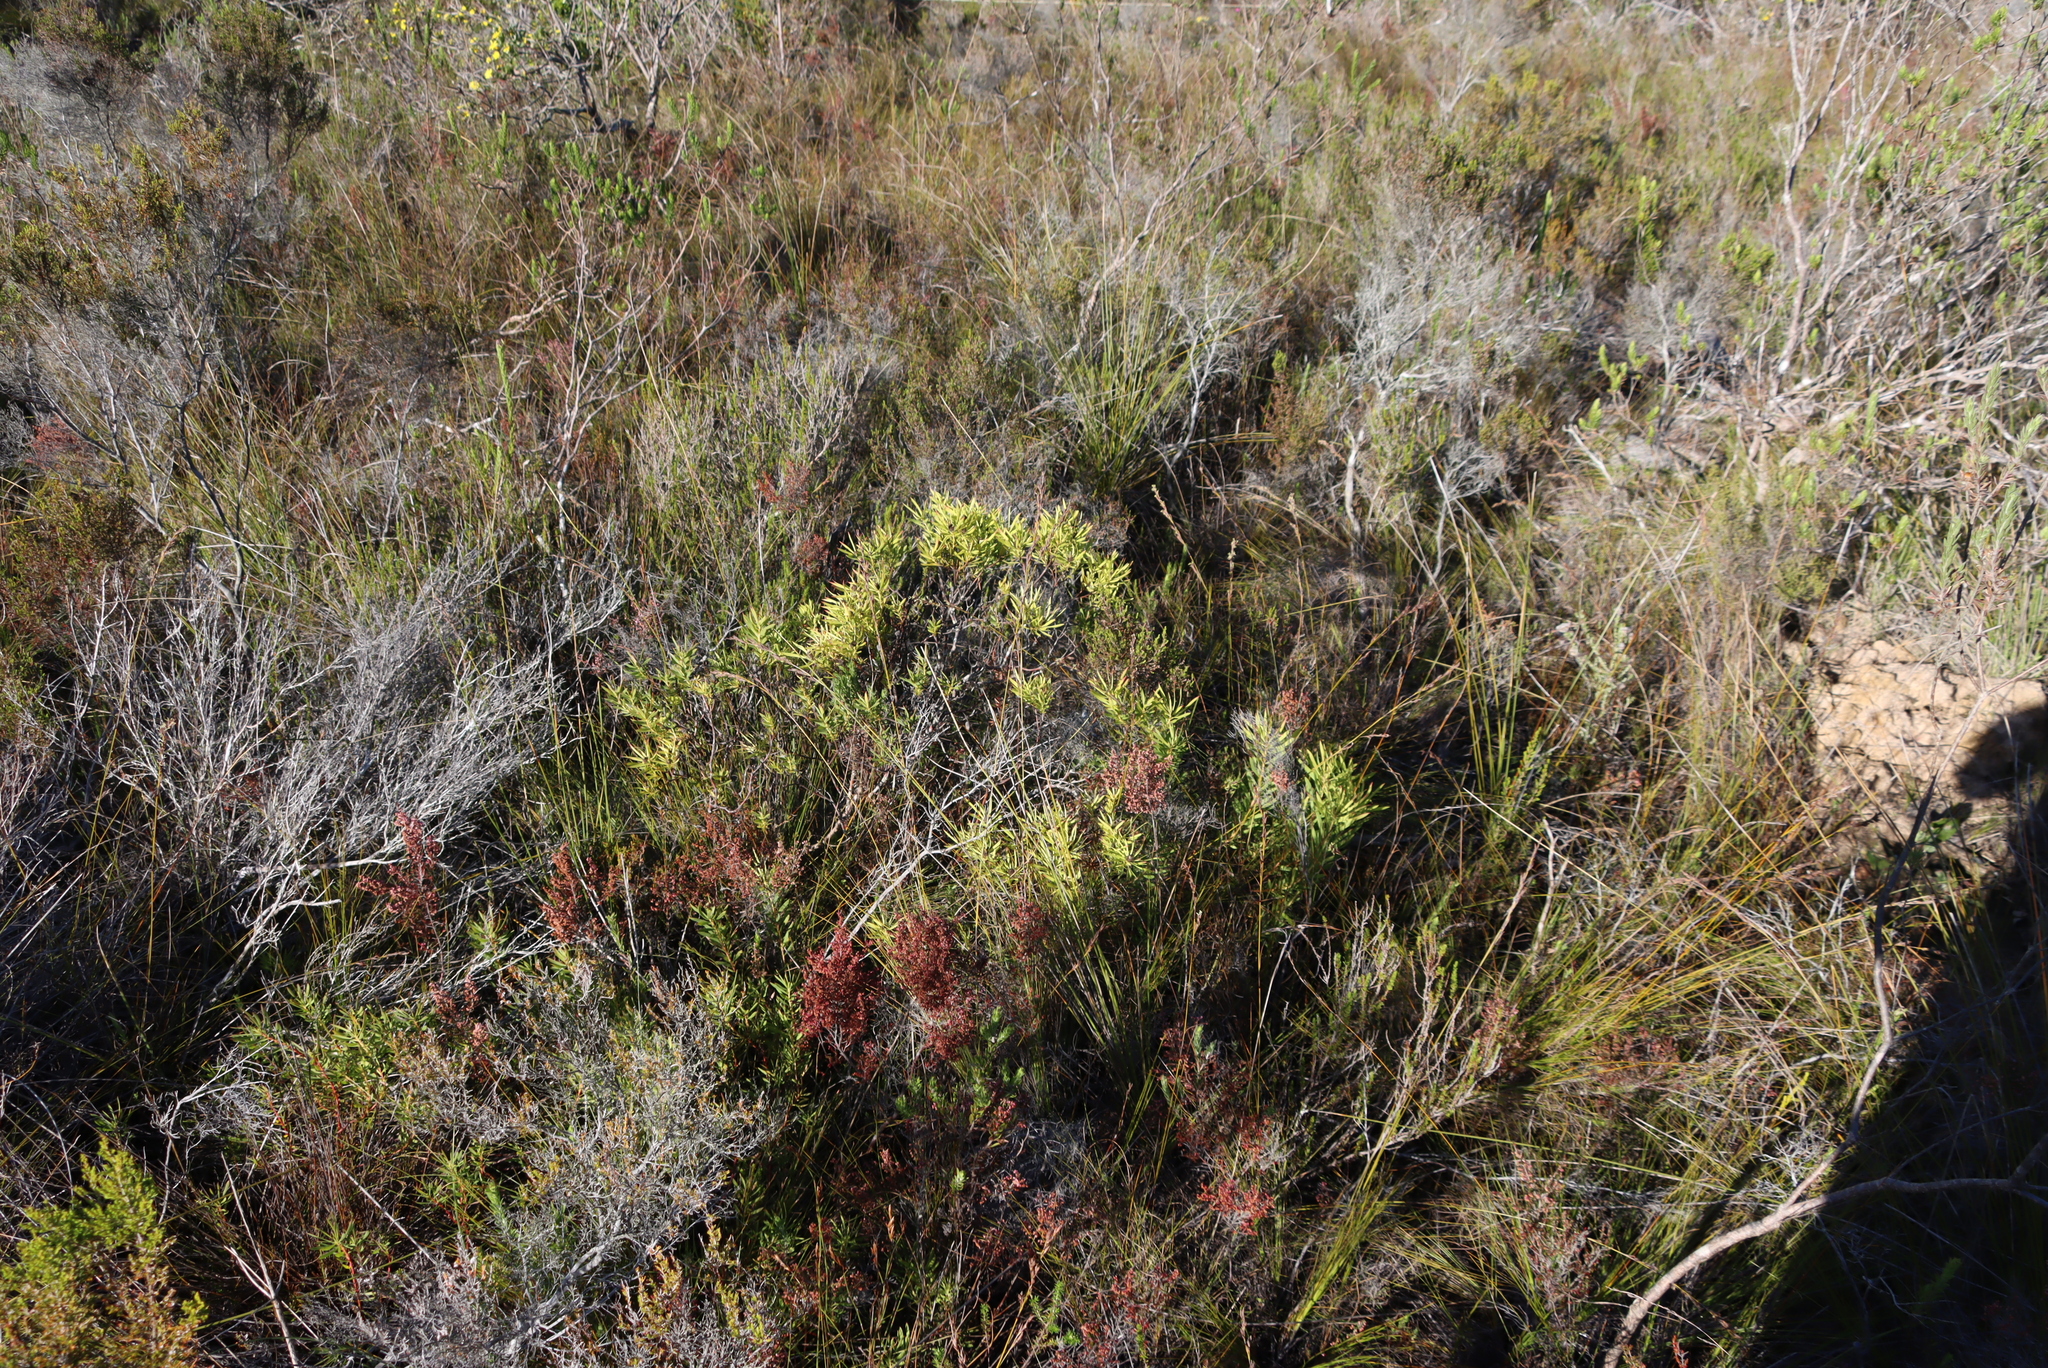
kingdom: Plantae
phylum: Tracheophyta
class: Magnoliopsida
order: Proteales
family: Proteaceae
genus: Leucadendron
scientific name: Leucadendron salignum
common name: Common sunshine conebush
